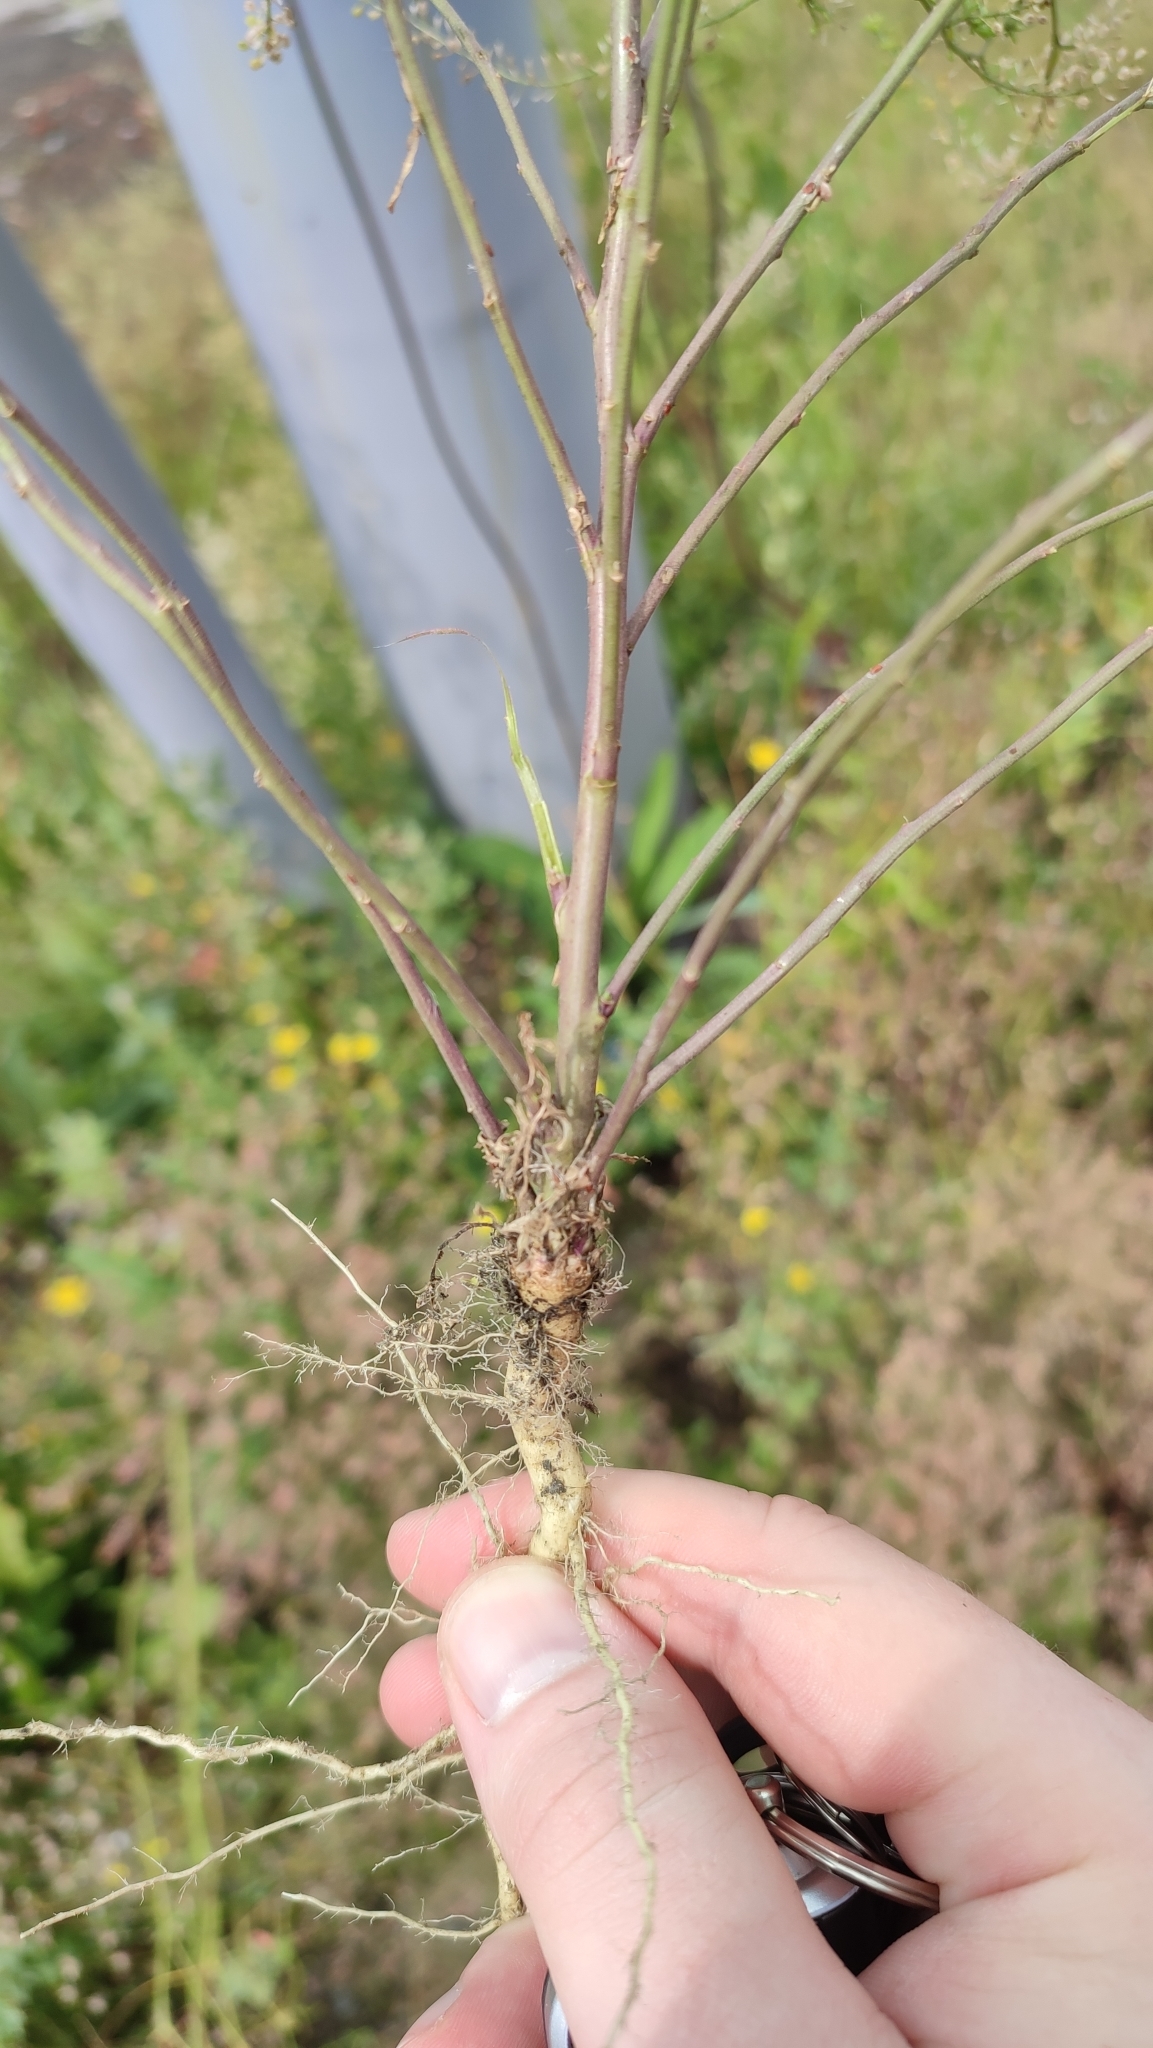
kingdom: Plantae
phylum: Tracheophyta
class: Magnoliopsida
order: Brassicales
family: Brassicaceae
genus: Lepidium
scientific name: Lepidium ruderale
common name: Narrow-leaved pepperwort
